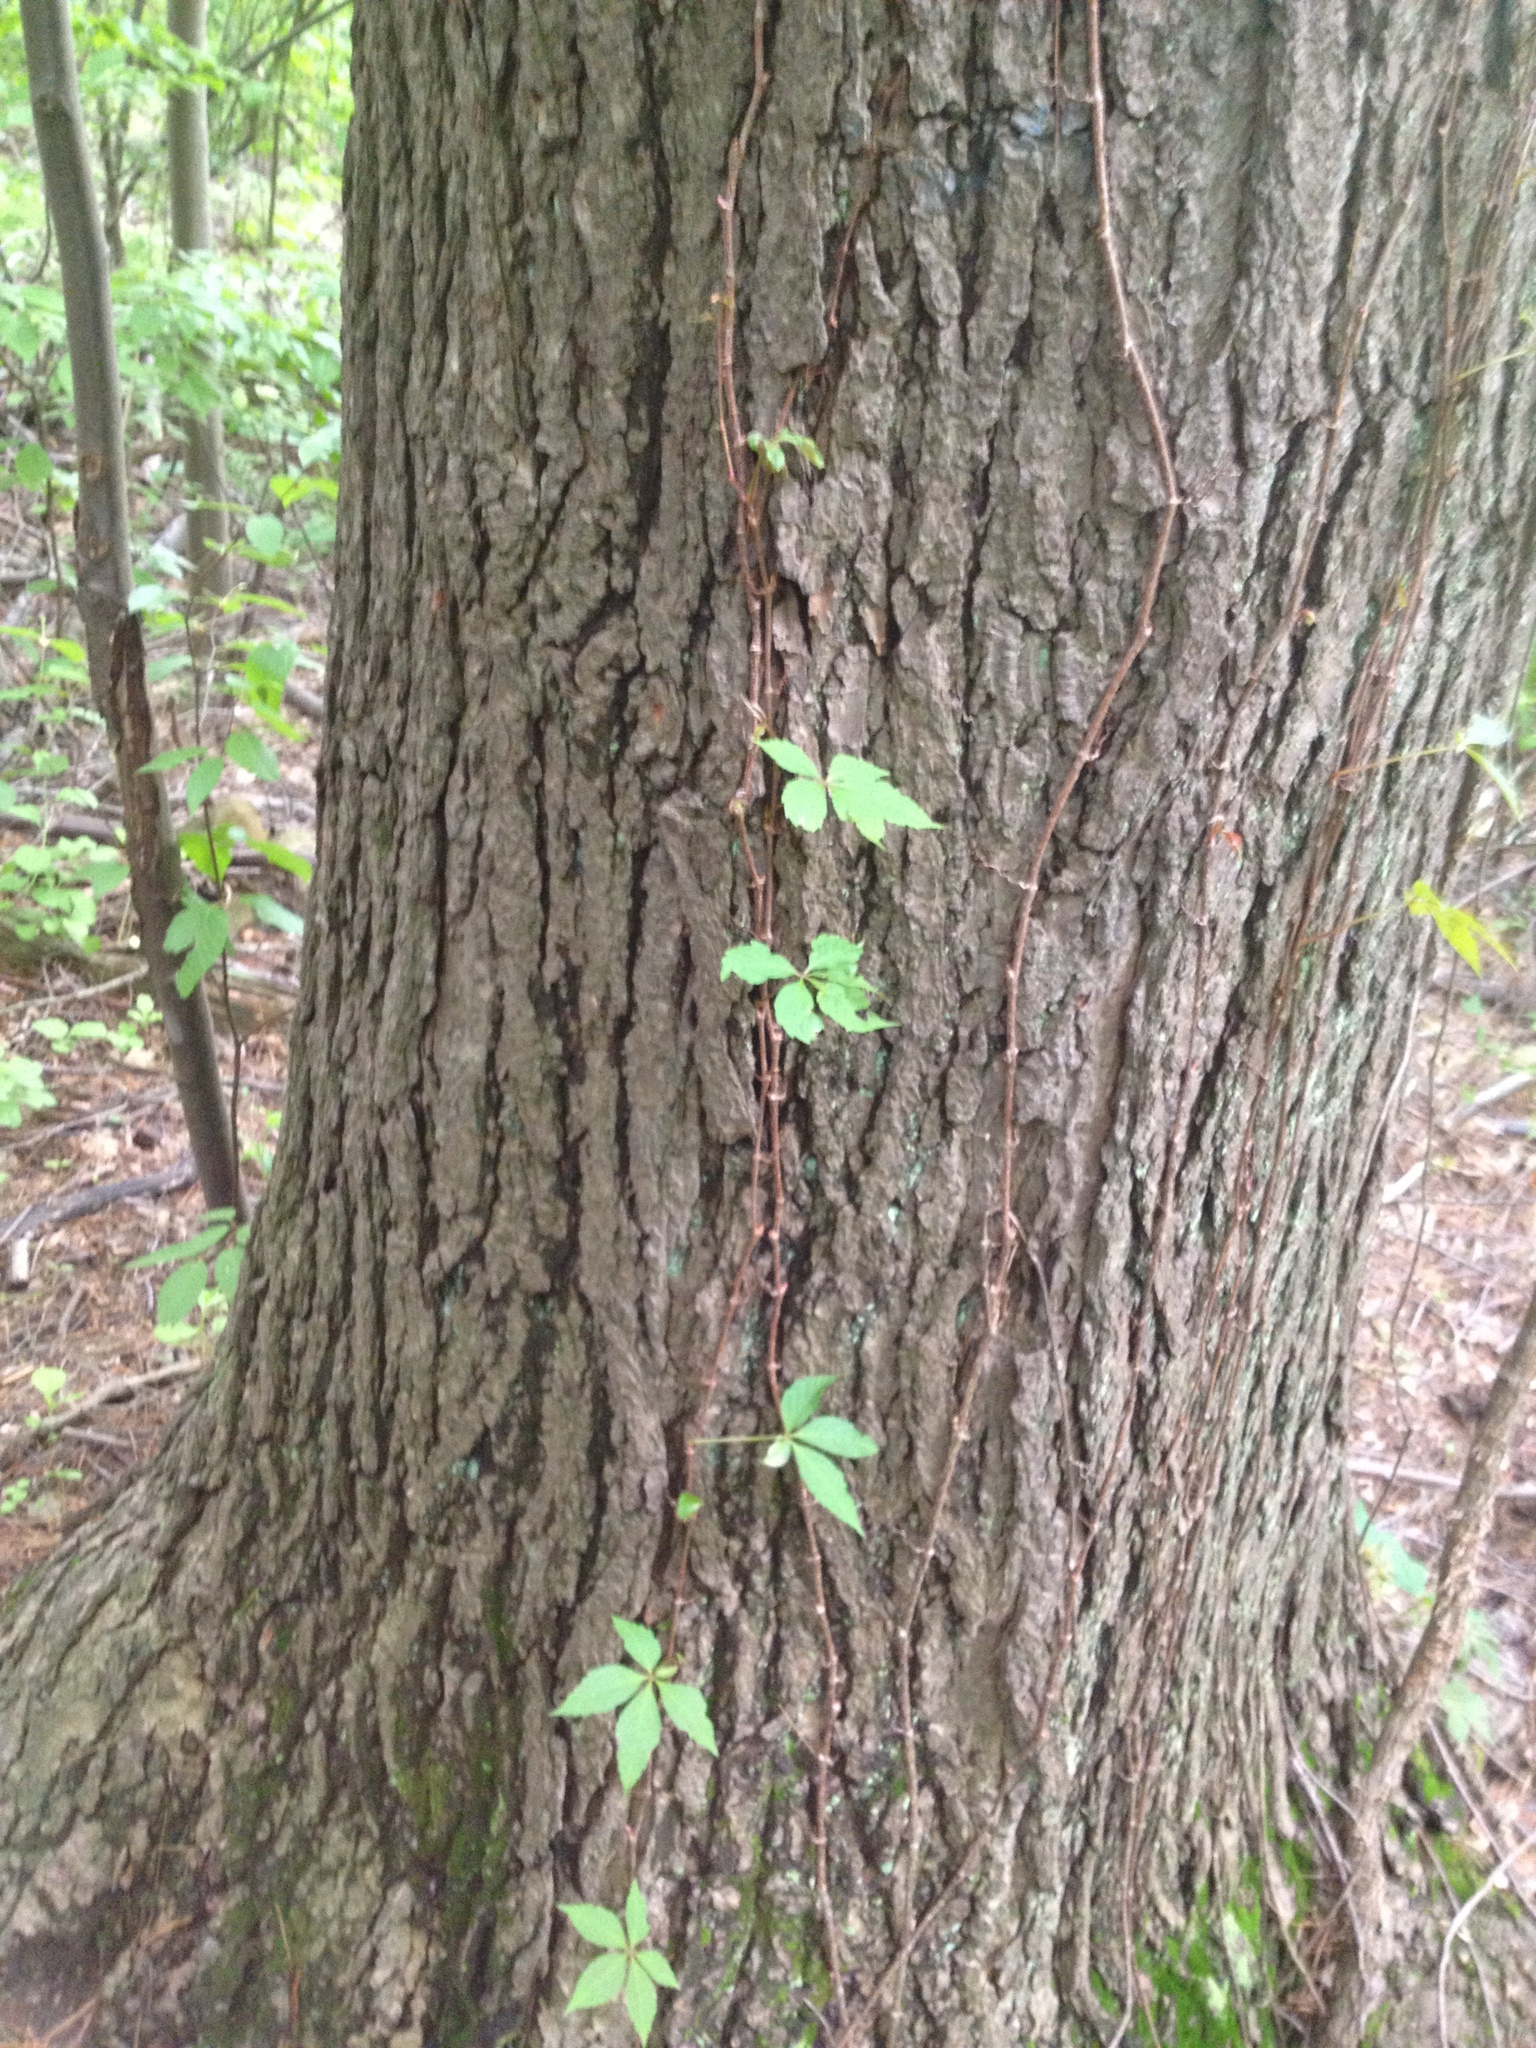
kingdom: Plantae
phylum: Tracheophyta
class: Magnoliopsida
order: Vitales
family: Vitaceae
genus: Parthenocissus
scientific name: Parthenocissus quinquefolia
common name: Virginia-creeper
